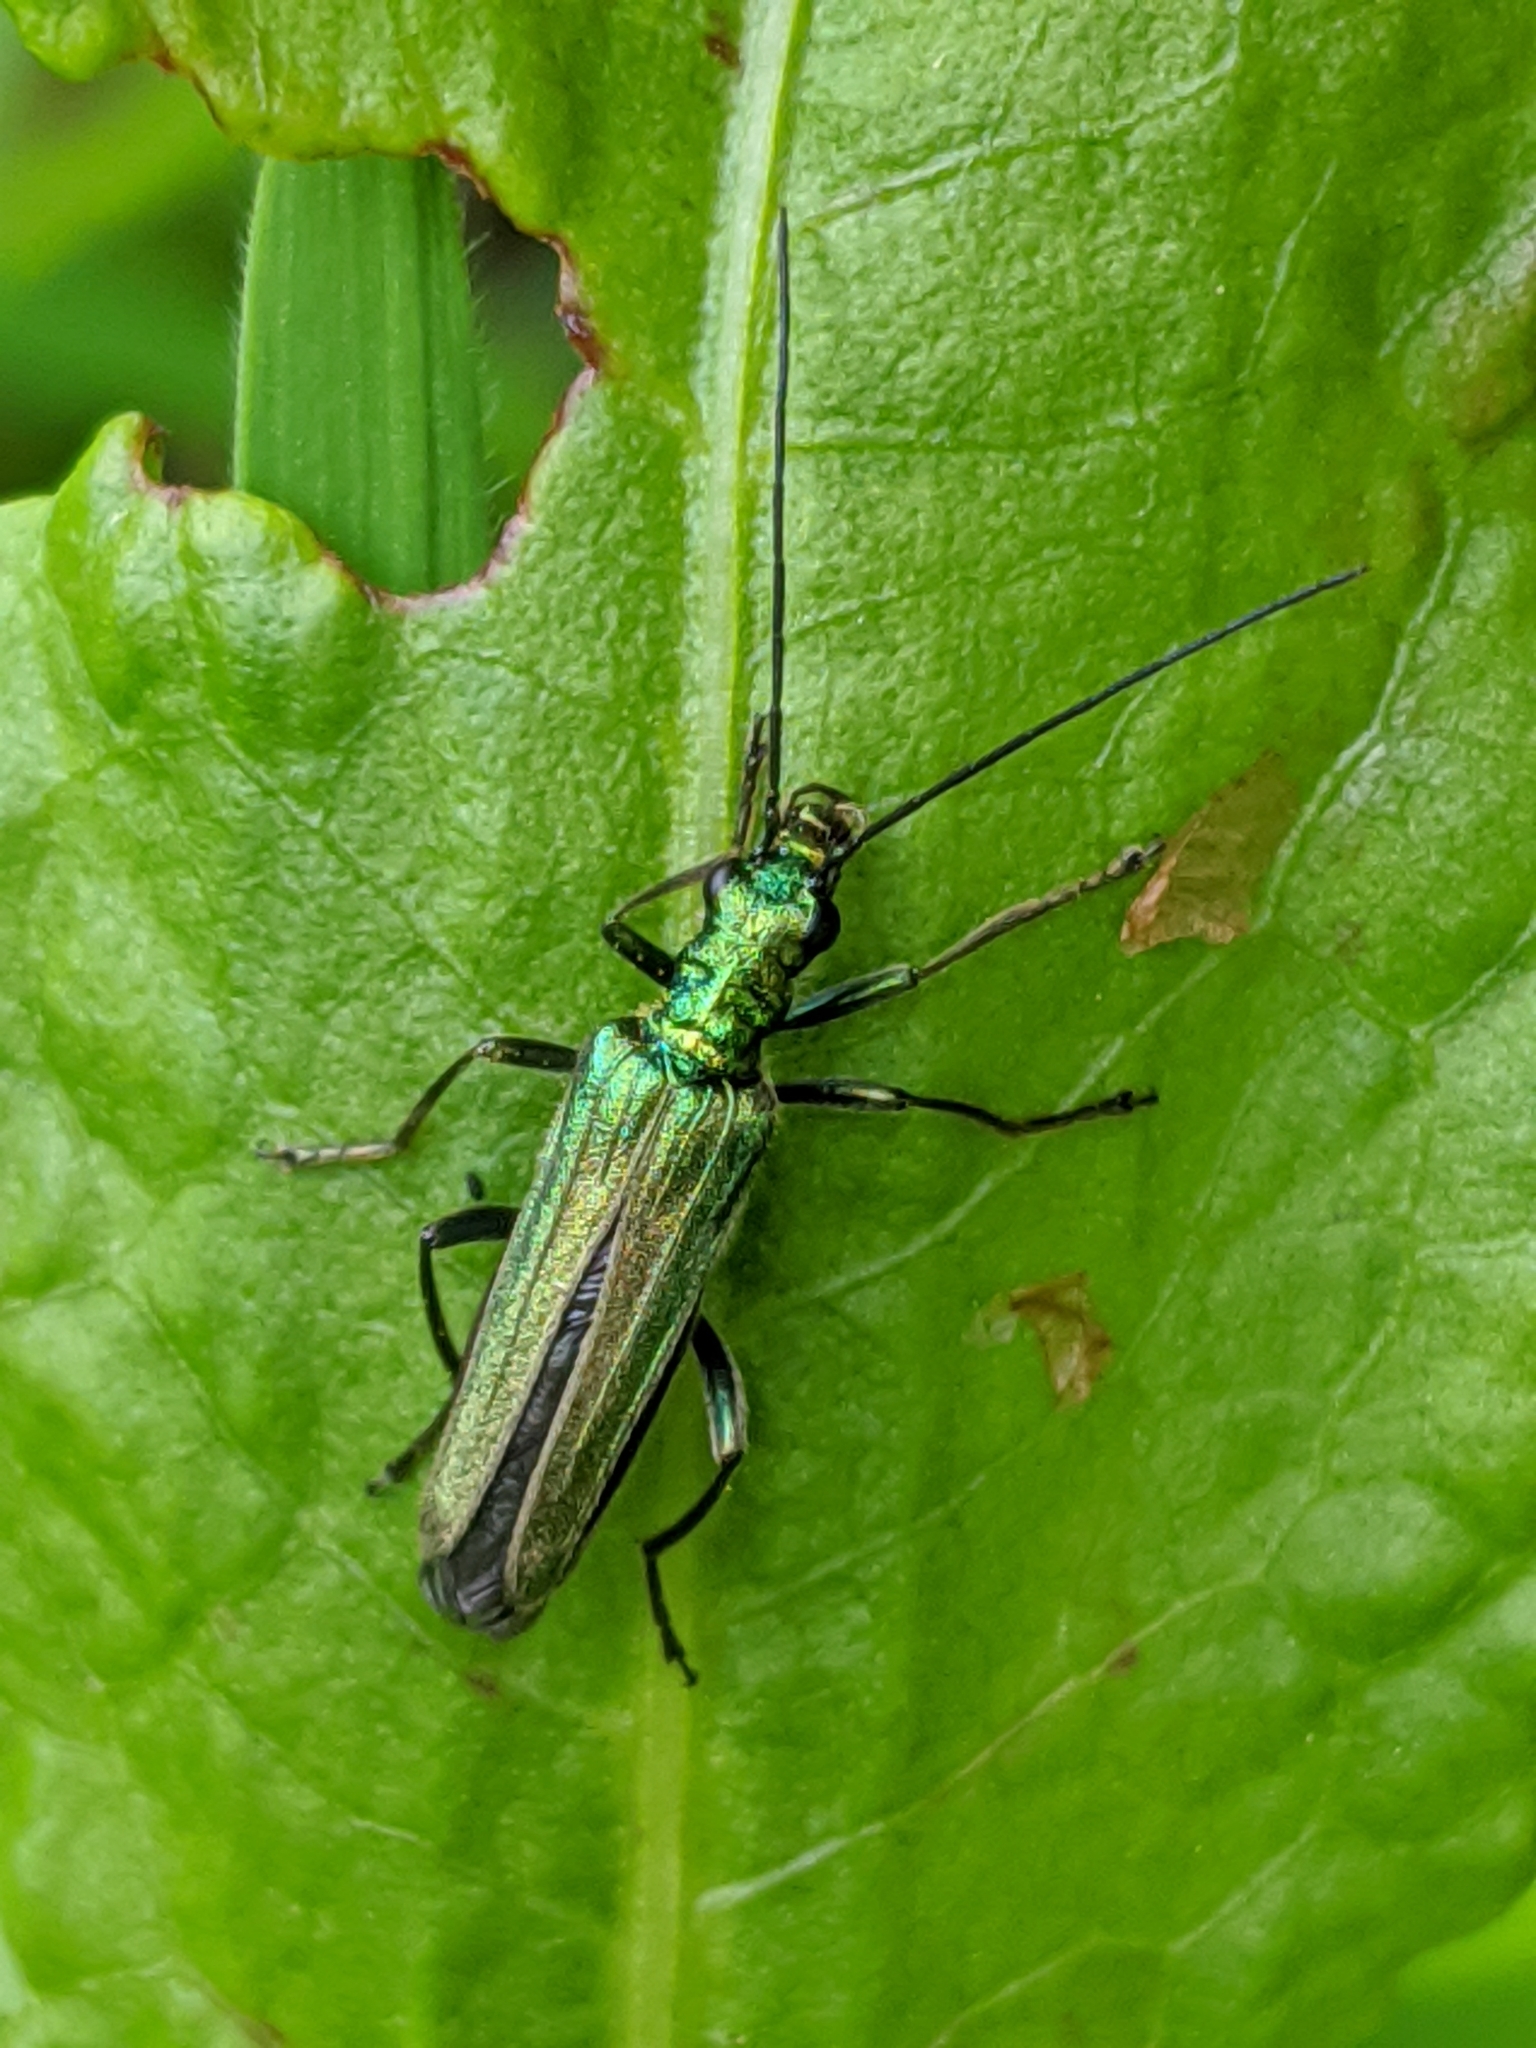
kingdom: Animalia
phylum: Arthropoda
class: Insecta
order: Coleoptera
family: Oedemeridae
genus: Oedemera
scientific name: Oedemera nobilis
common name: Swollen-thighed beetle
